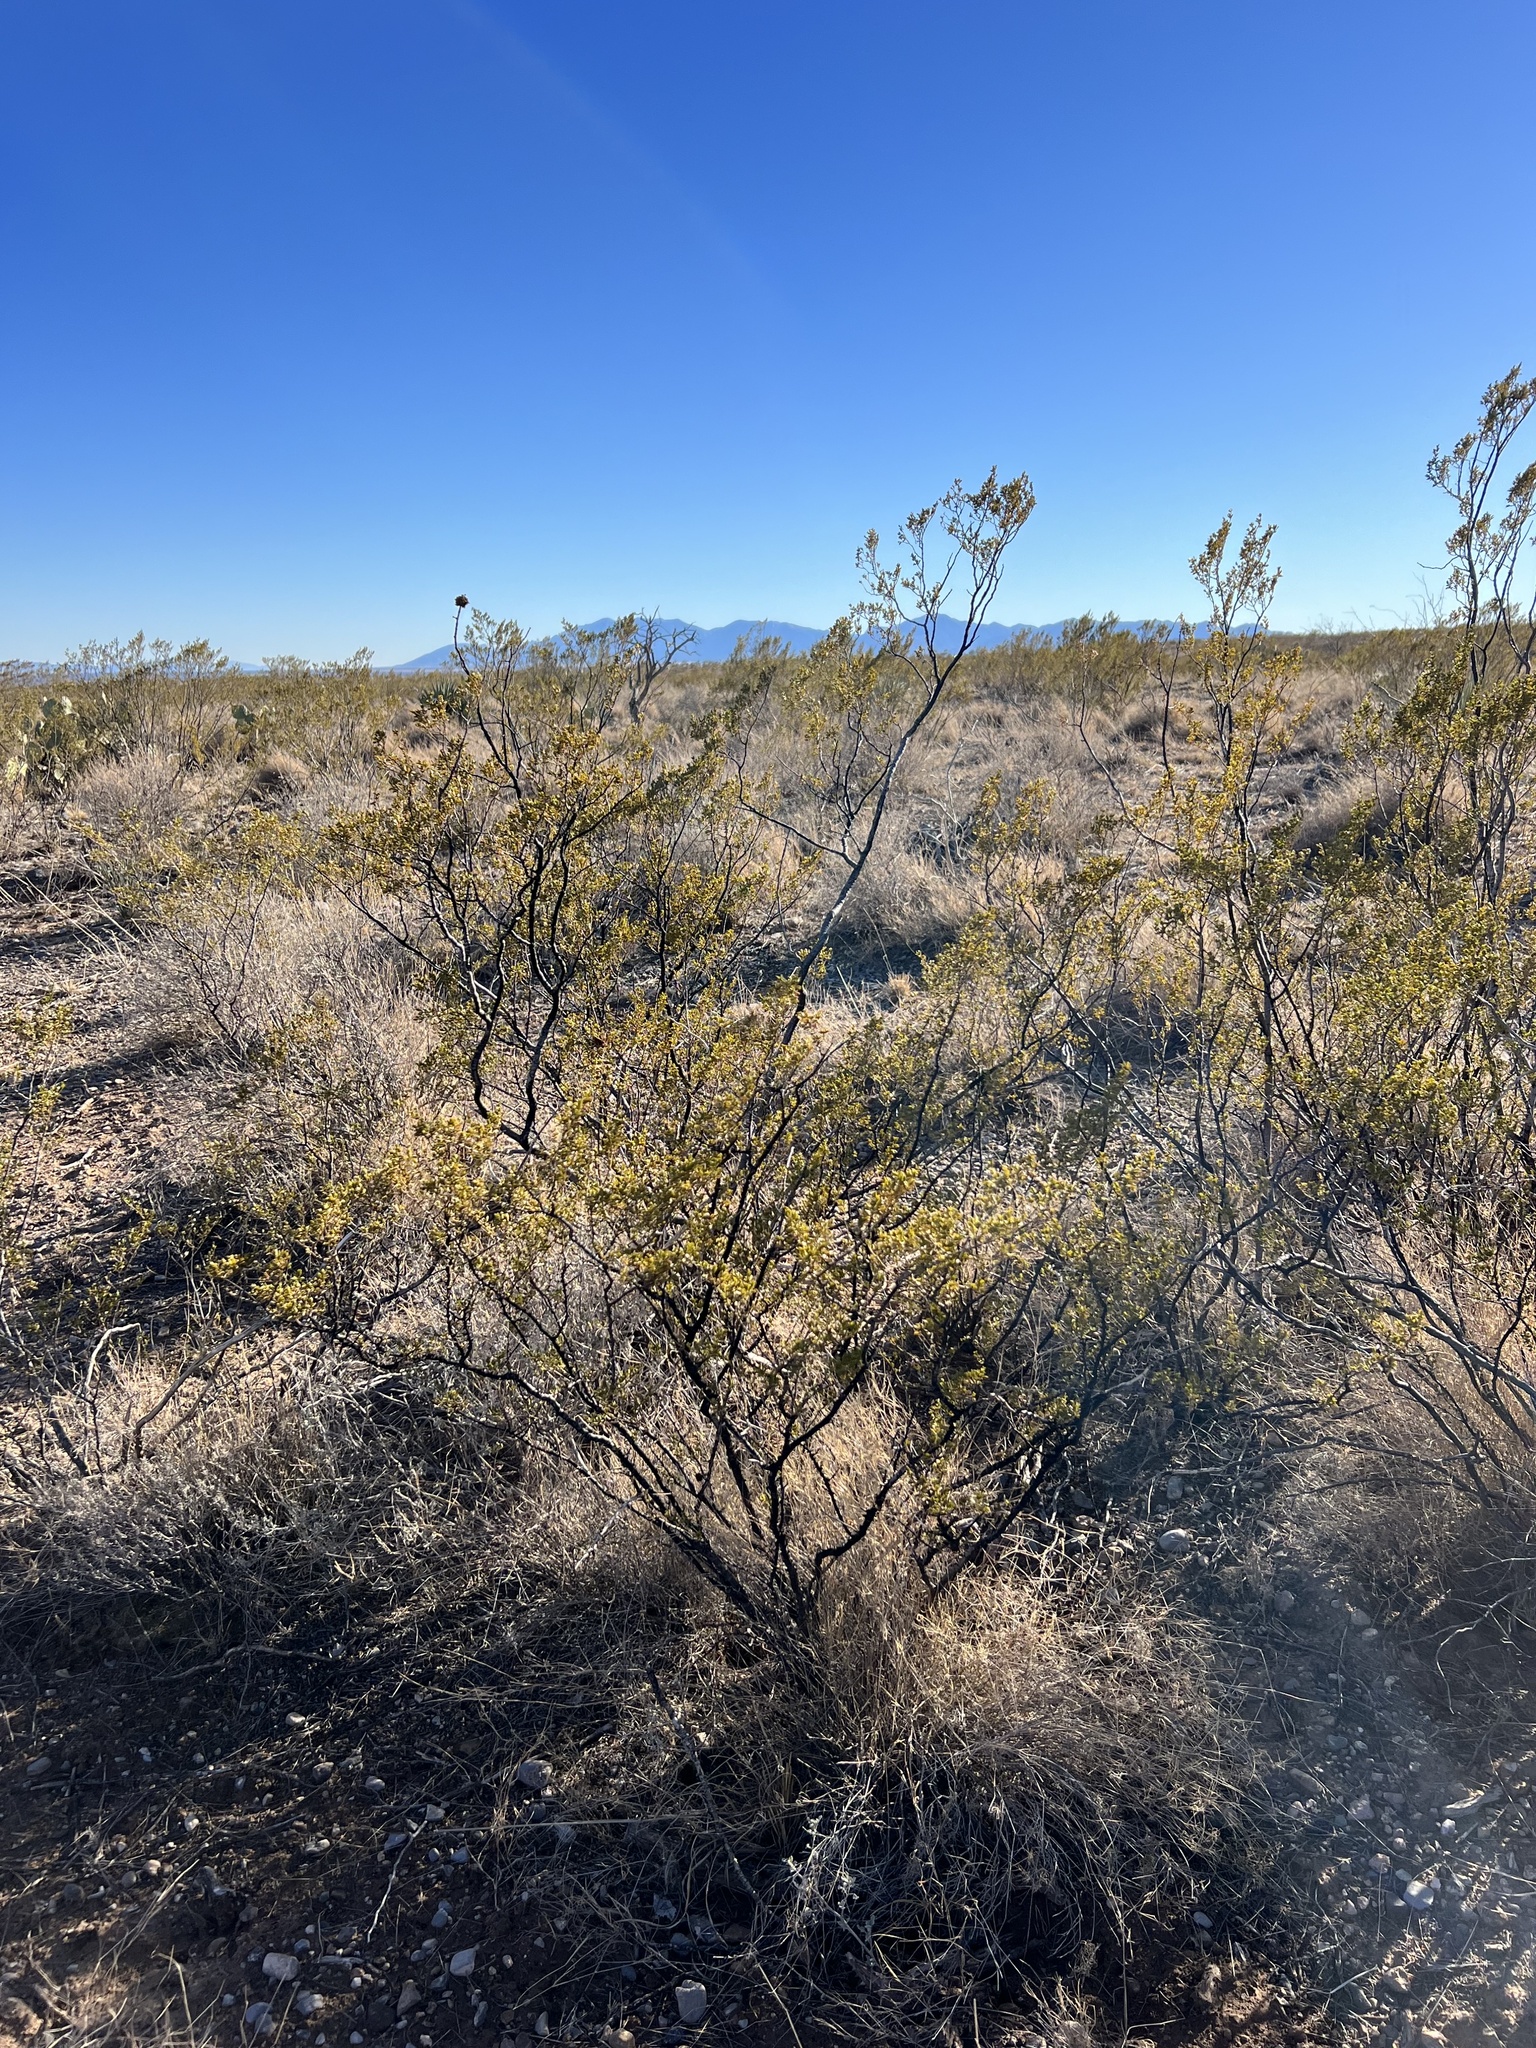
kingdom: Plantae
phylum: Tracheophyta
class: Magnoliopsida
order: Zygophyllales
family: Zygophyllaceae
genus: Larrea
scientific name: Larrea tridentata
